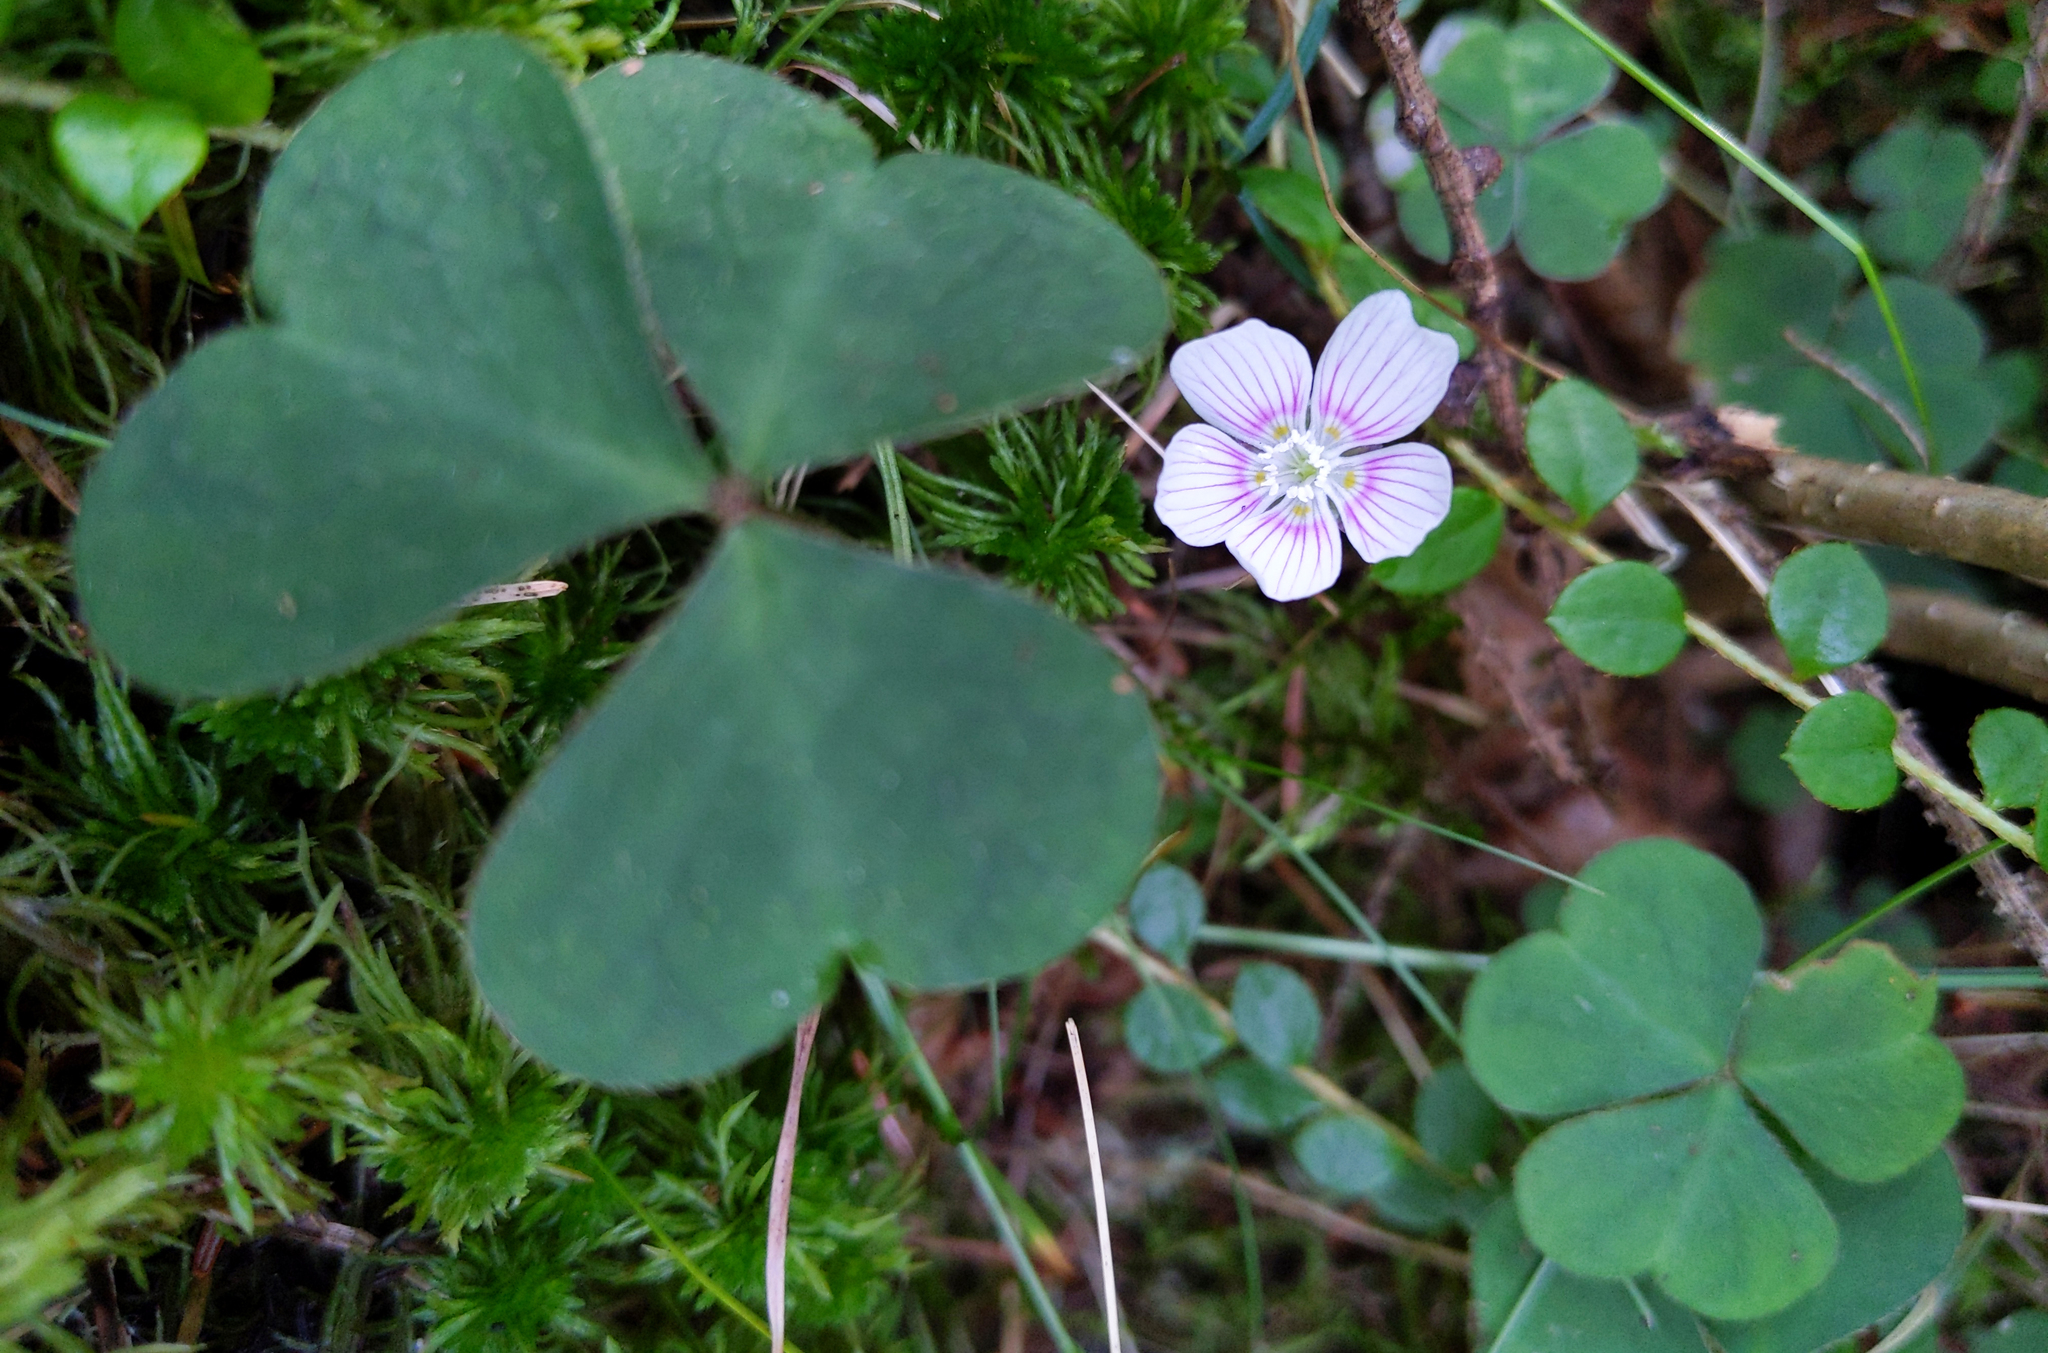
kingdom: Plantae
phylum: Tracheophyta
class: Magnoliopsida
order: Oxalidales
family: Oxalidaceae
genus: Oxalis
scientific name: Oxalis montana
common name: American wood-sorrel
